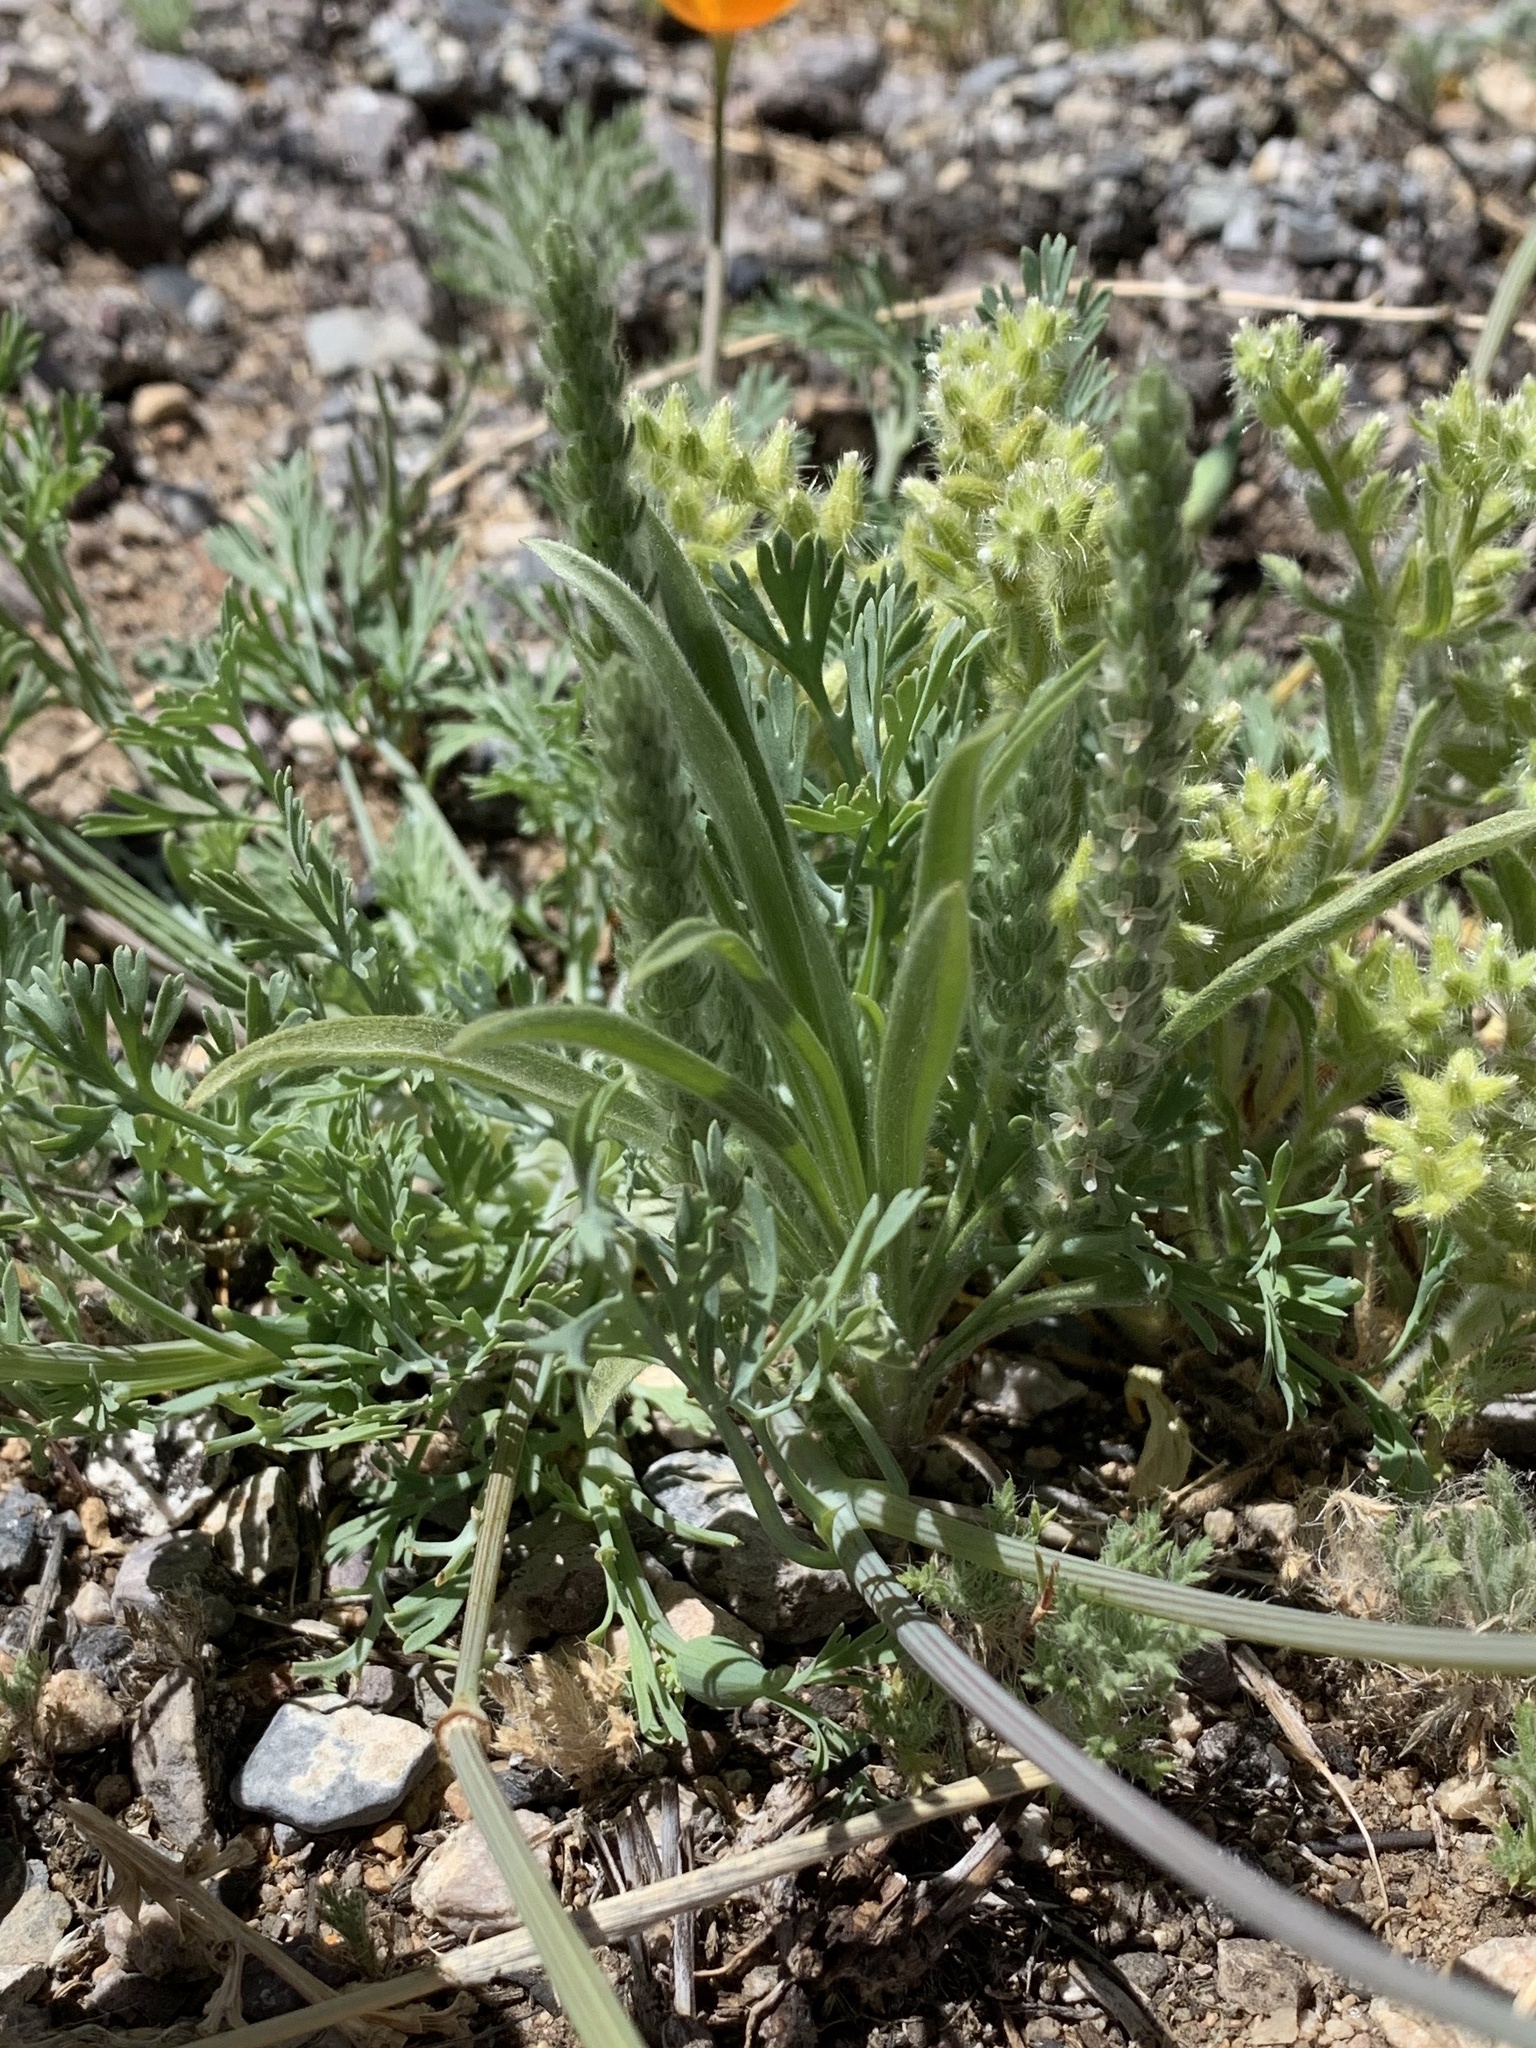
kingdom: Plantae
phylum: Tracheophyta
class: Magnoliopsida
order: Lamiales
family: Plantaginaceae
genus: Plantago
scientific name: Plantago patagonica
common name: Patagonia indian-wheat
